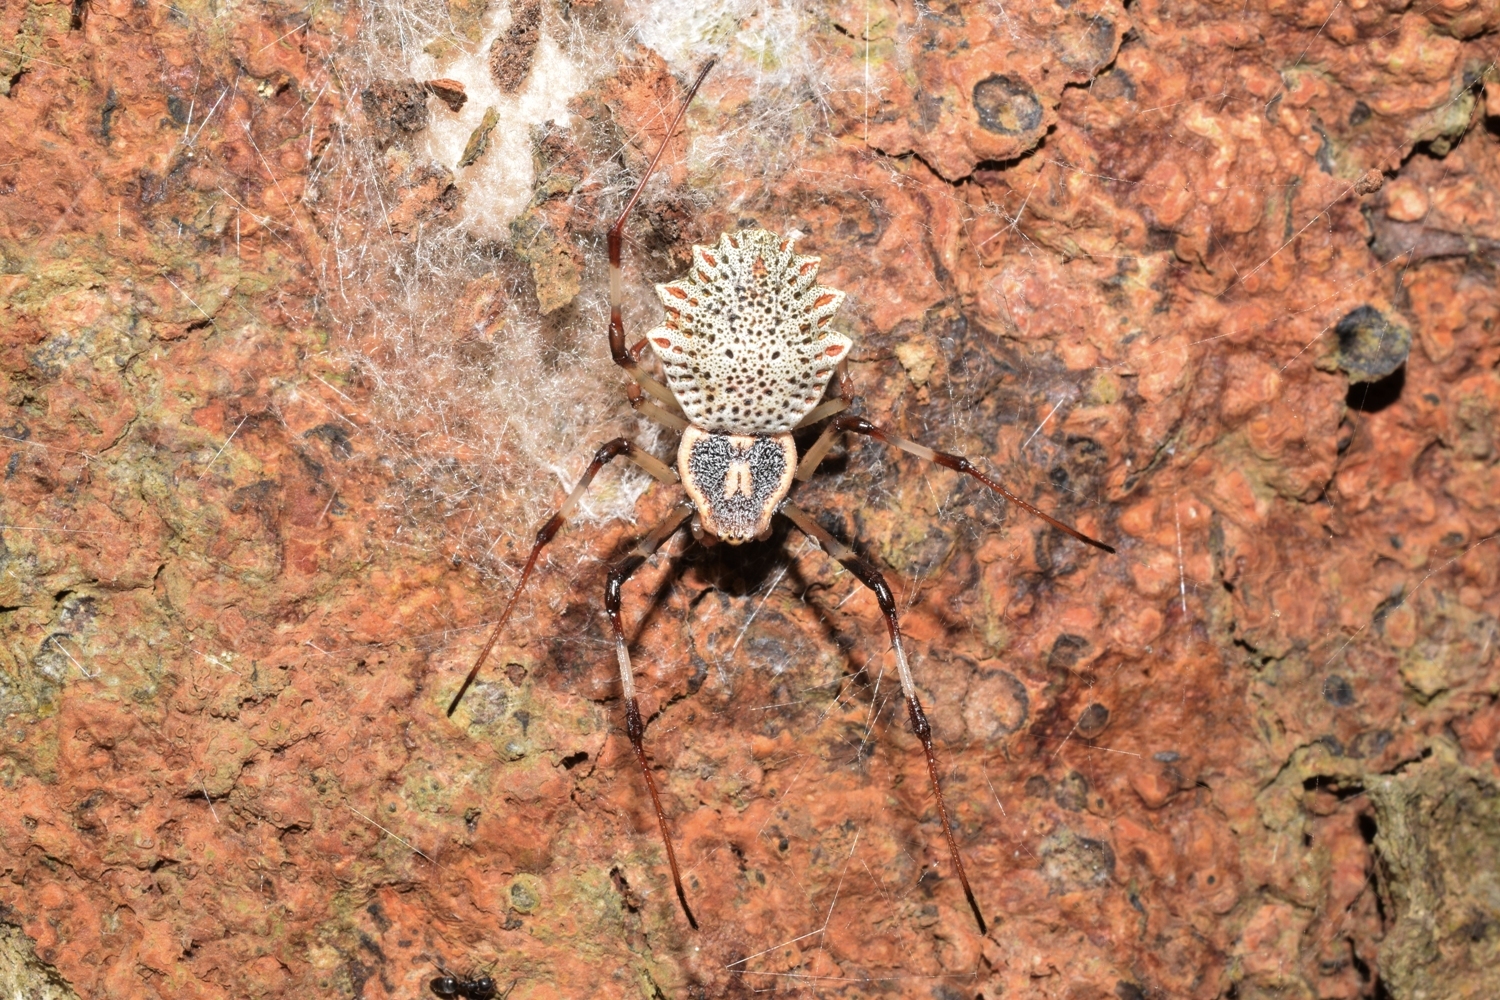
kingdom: Animalia
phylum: Arthropoda
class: Arachnida
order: Araneae
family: Araneidae
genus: Herennia
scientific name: Herennia multipuncta
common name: Spotted coin spider
